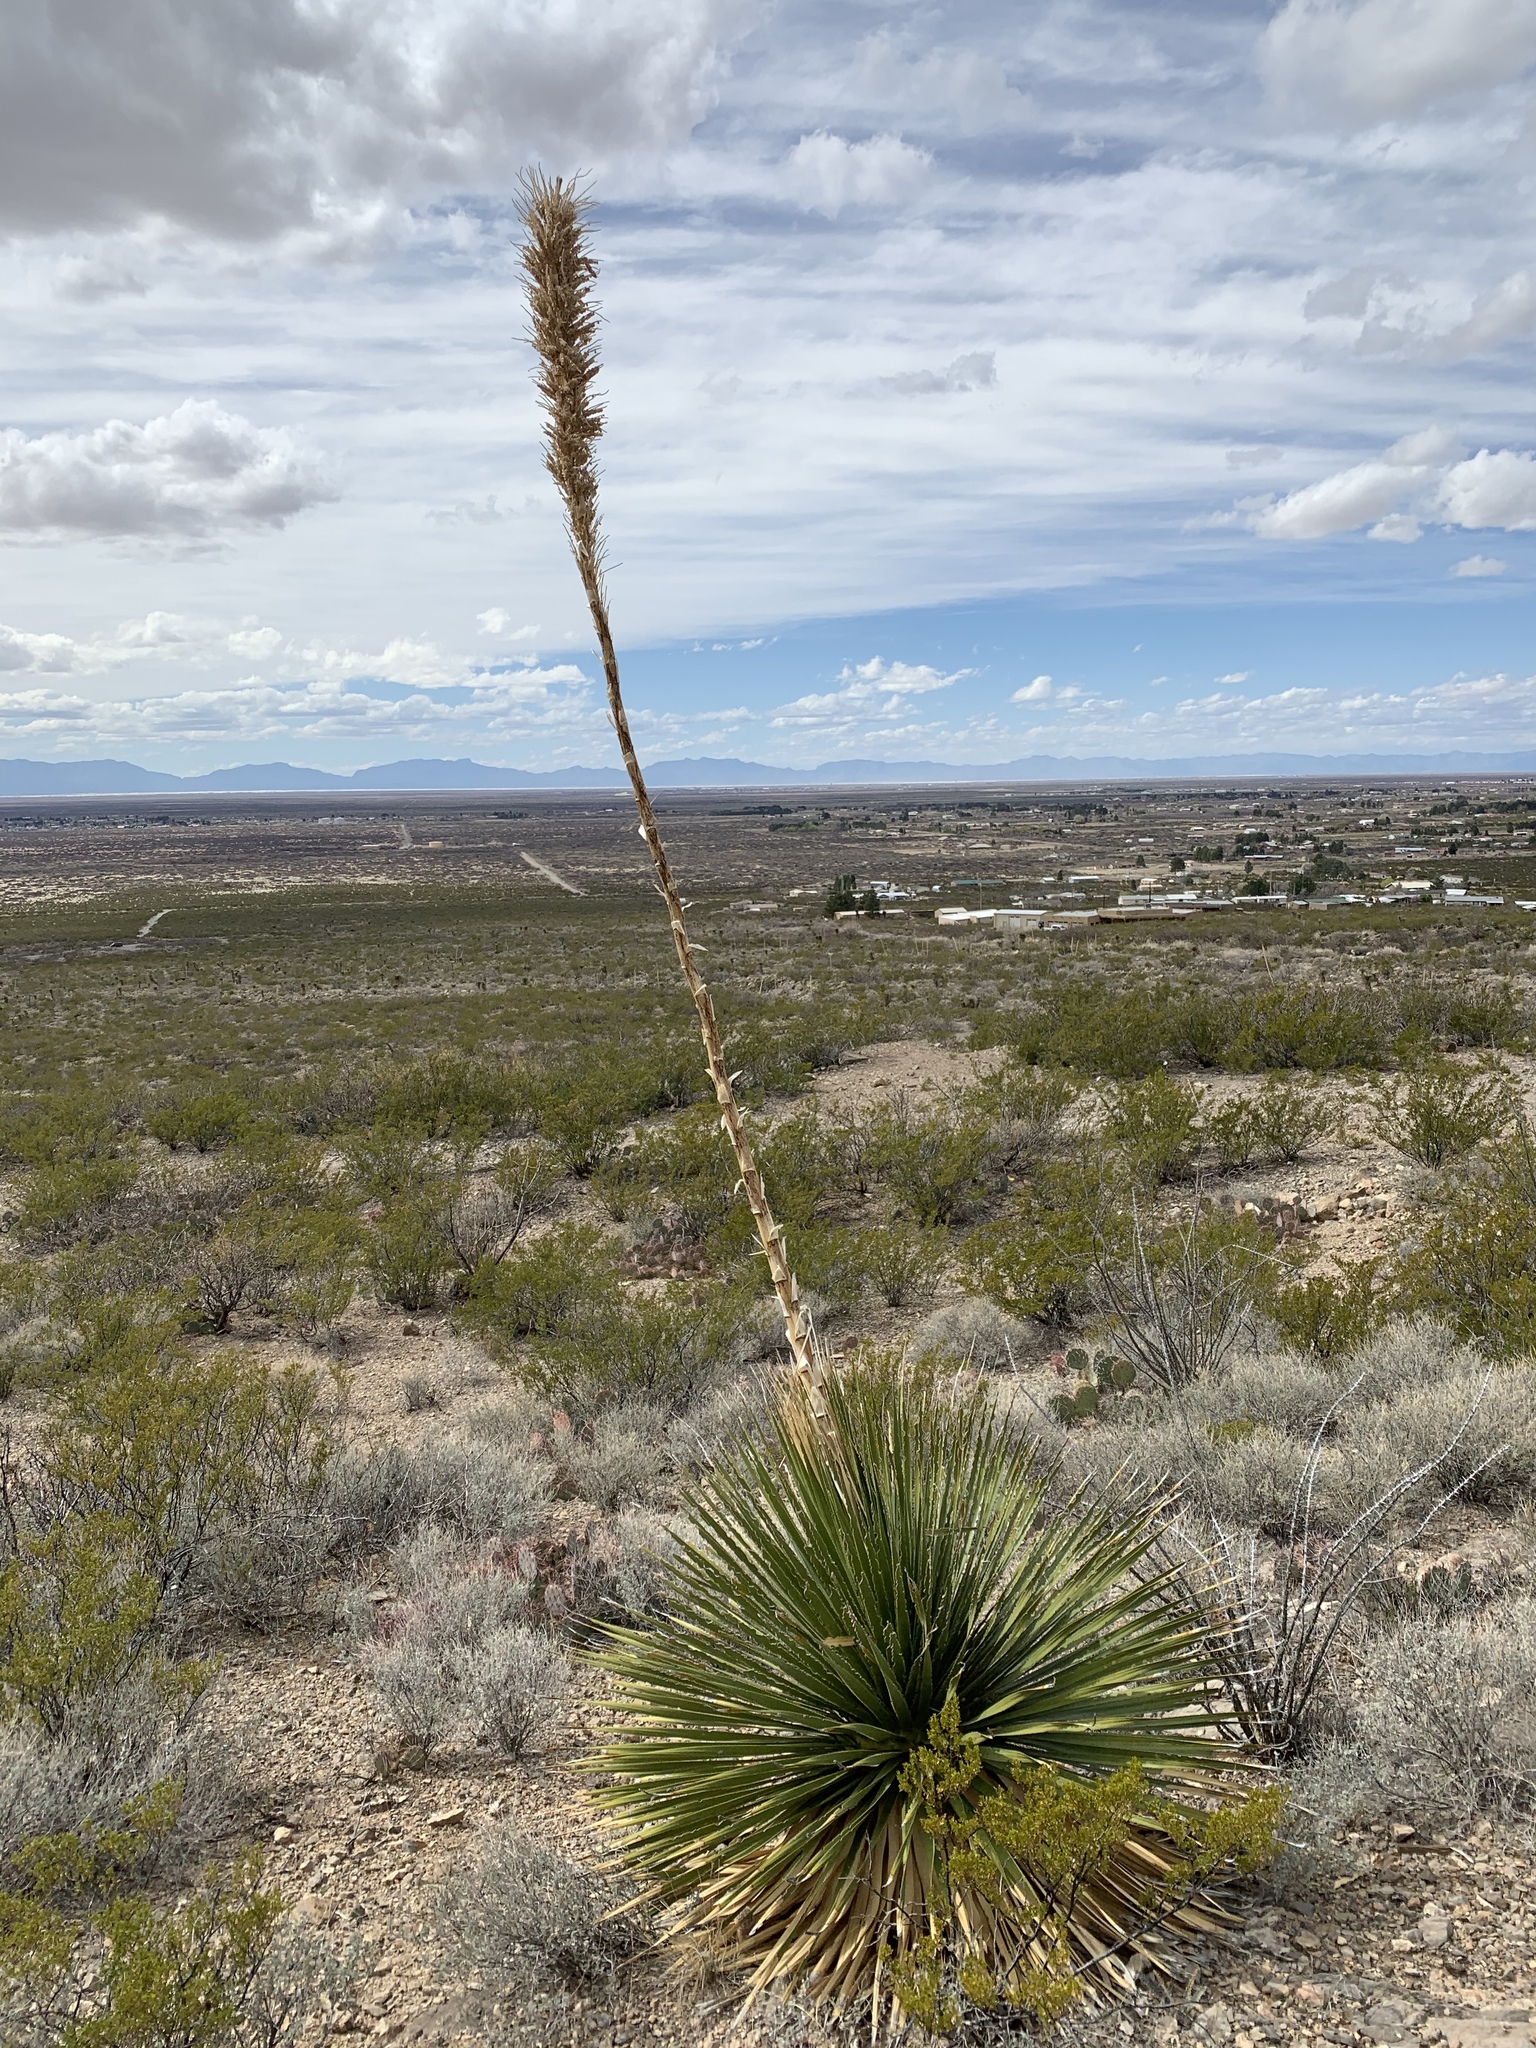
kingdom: Plantae
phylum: Tracheophyta
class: Liliopsida
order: Asparagales
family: Asparagaceae
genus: Dasylirion
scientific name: Dasylirion wheeleri
